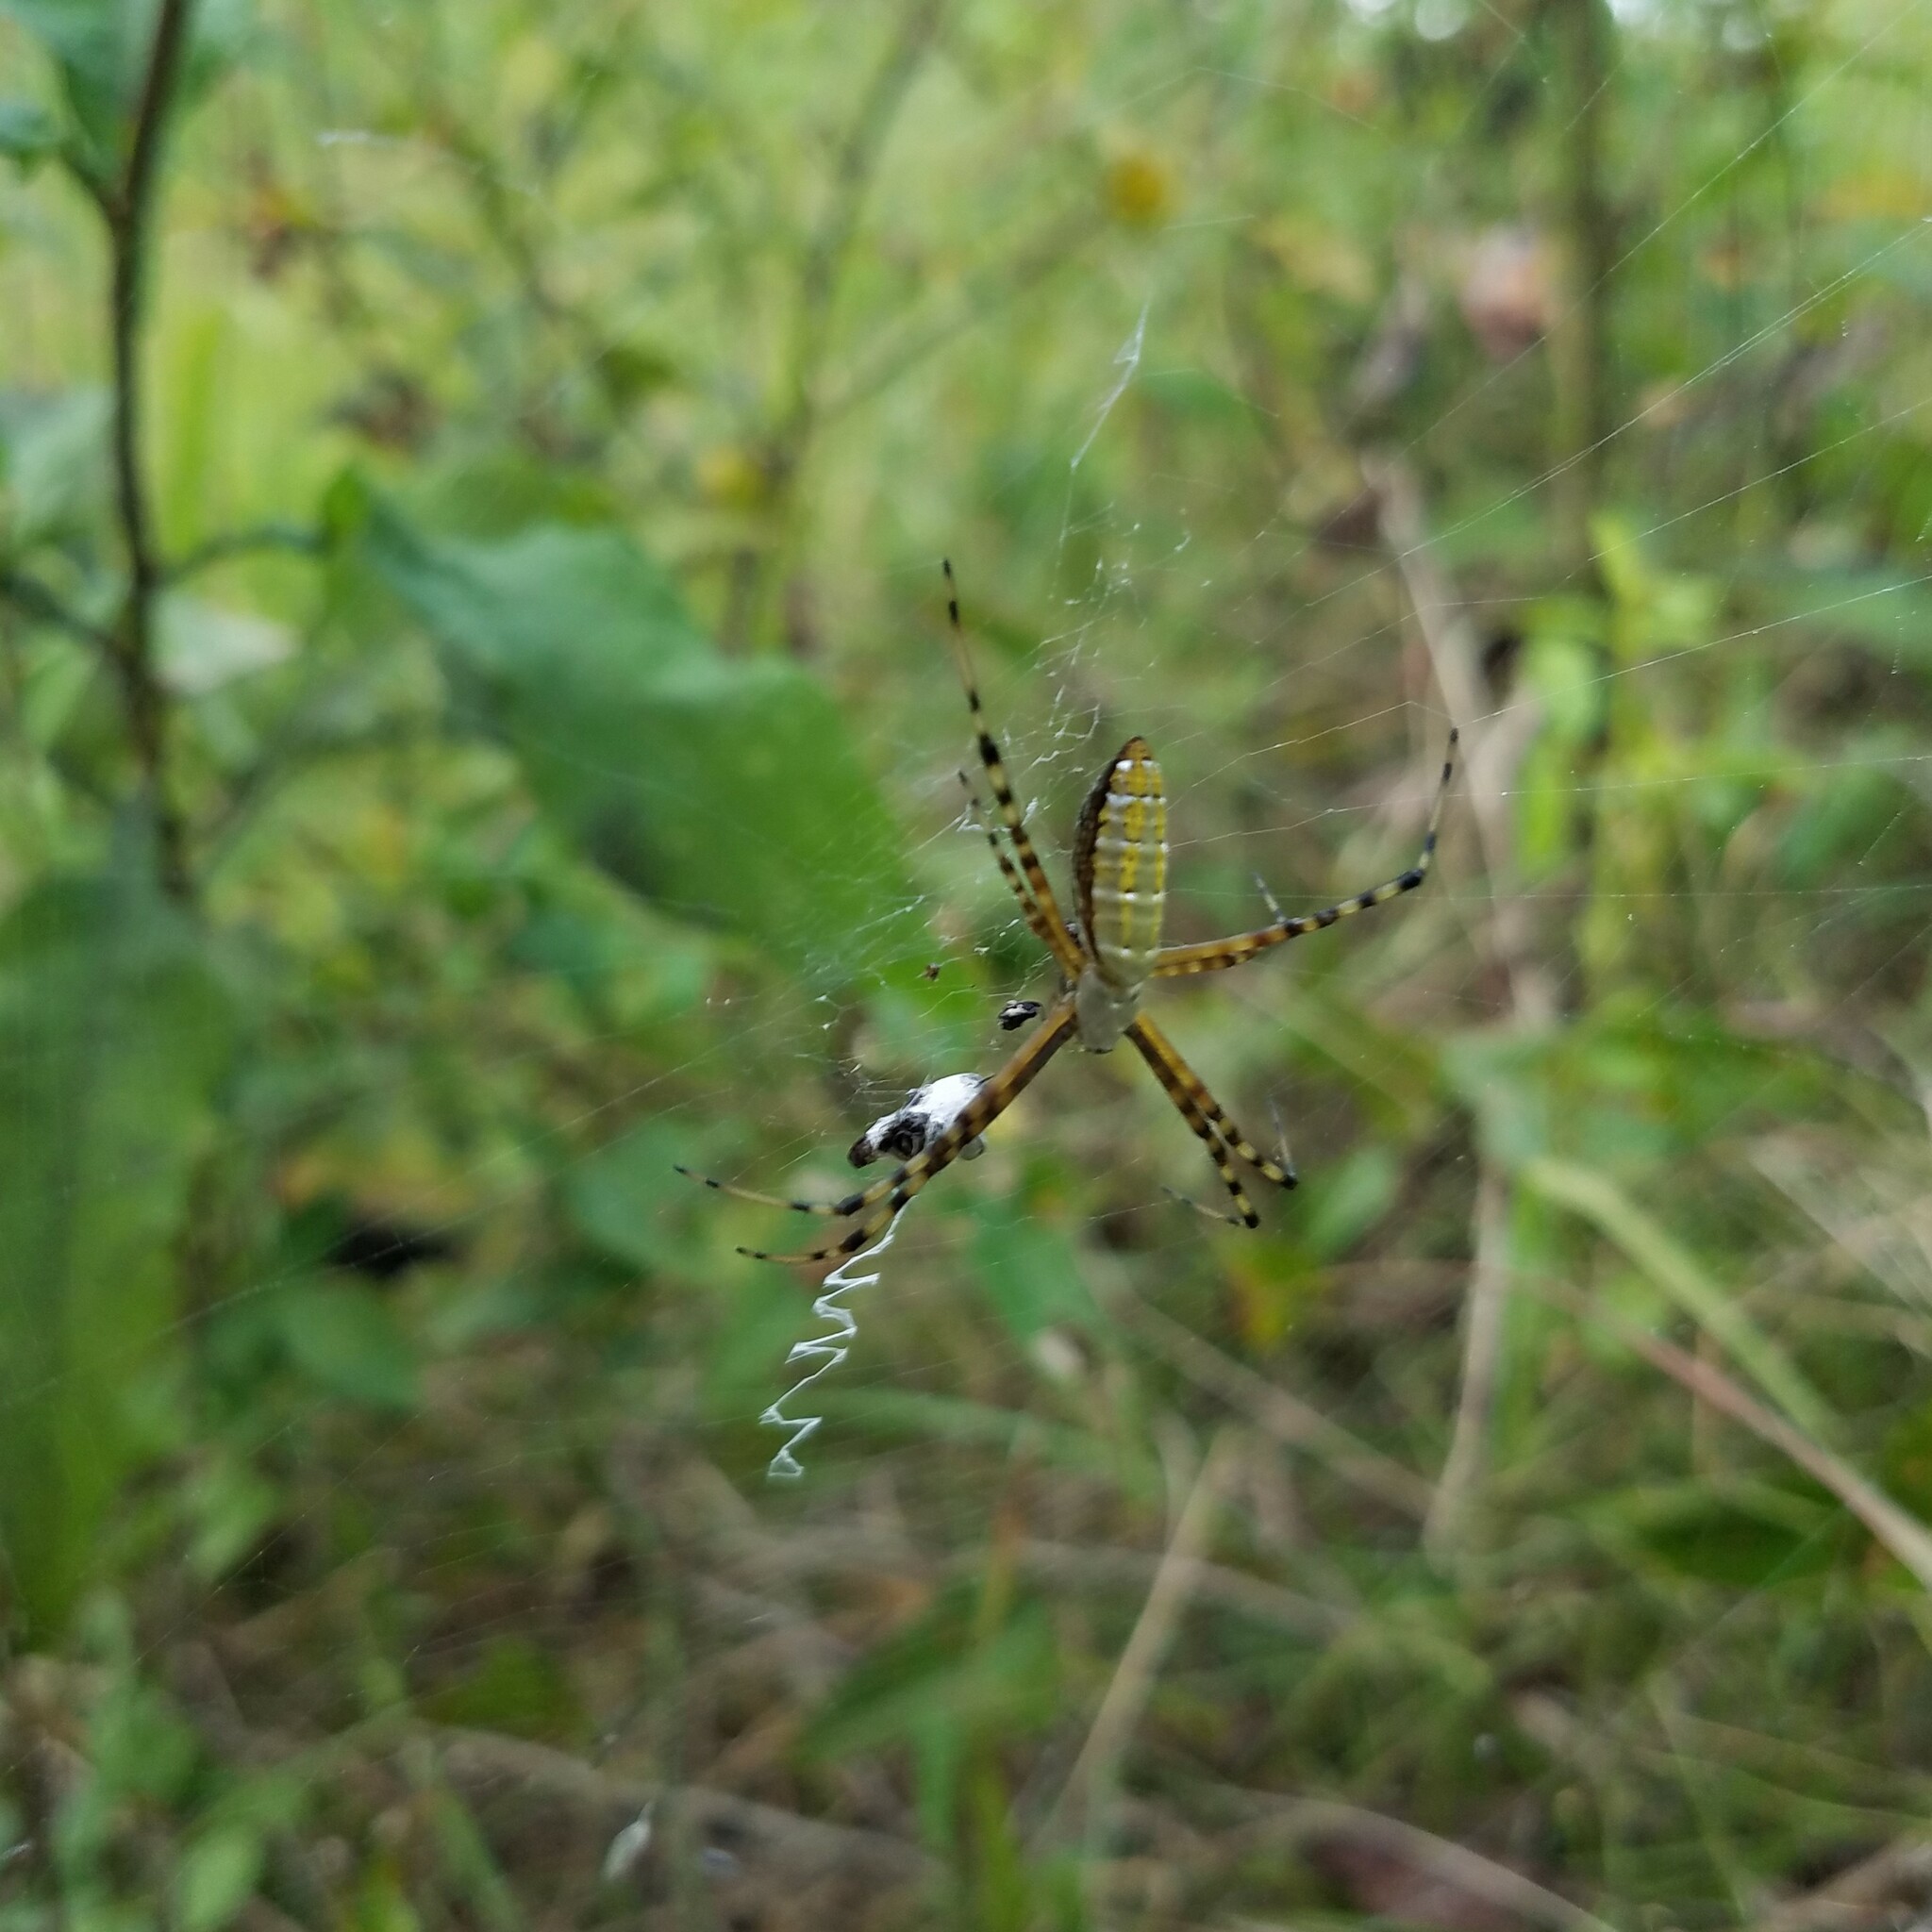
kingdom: Animalia
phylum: Arthropoda
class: Arachnida
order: Araneae
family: Araneidae
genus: Argiope
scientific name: Argiope trifasciata
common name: Banded garden spider
